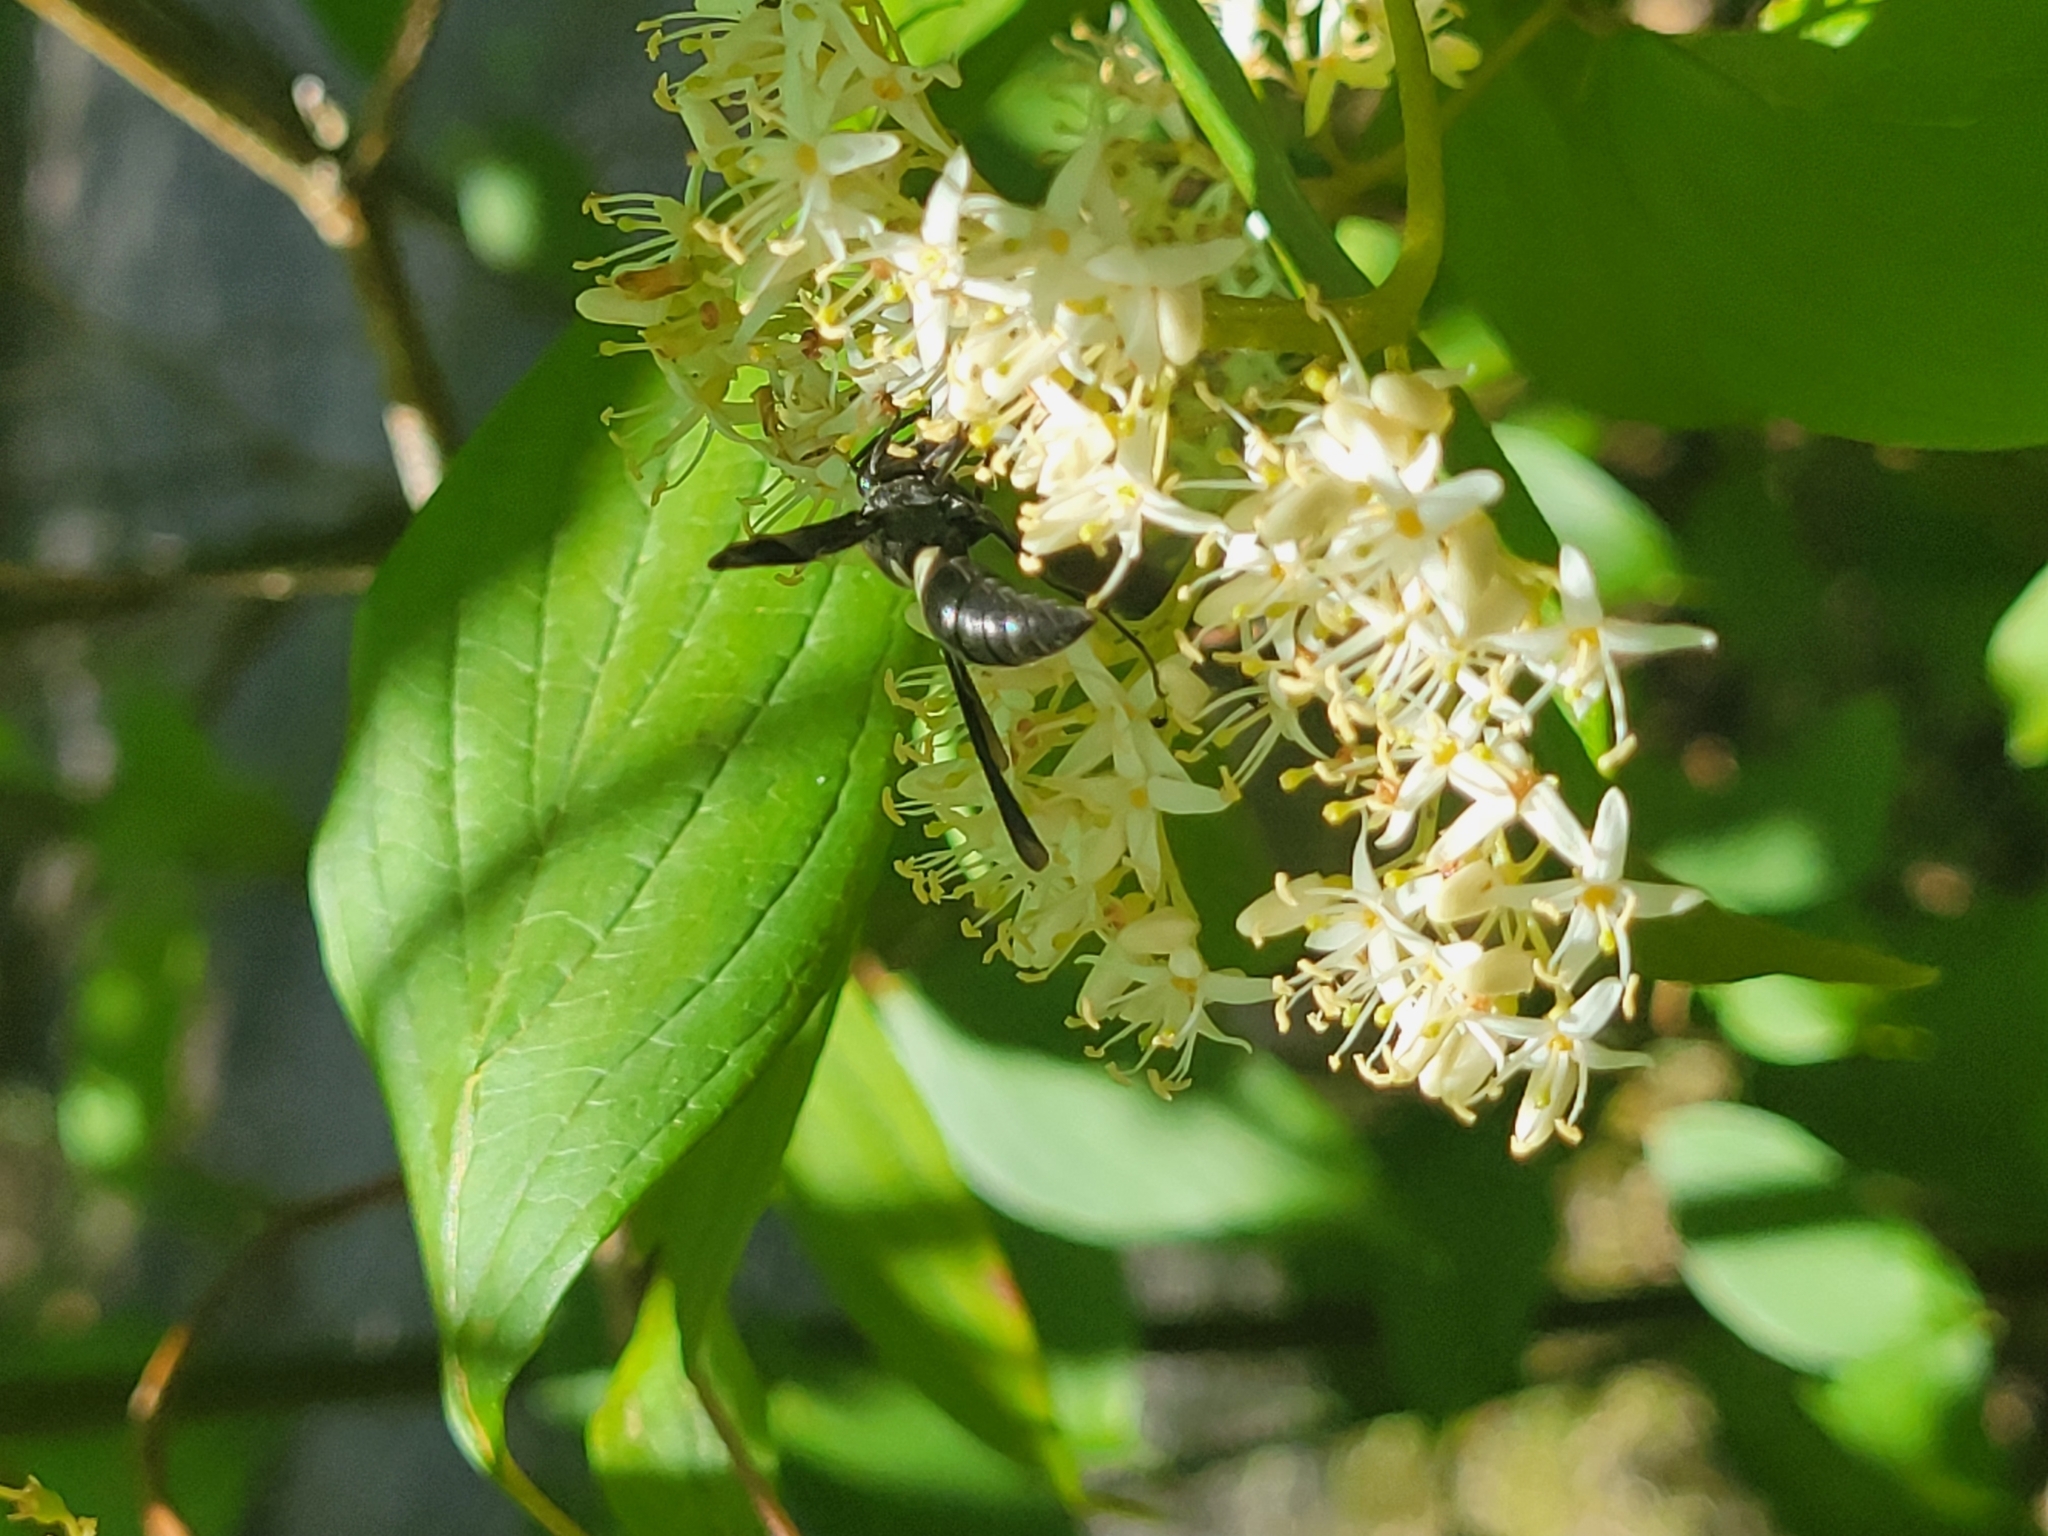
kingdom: Animalia
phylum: Arthropoda
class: Insecta
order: Hymenoptera
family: Eumenidae
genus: Monobia
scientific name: Monobia quadridens
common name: Four-toothed mason wasp
